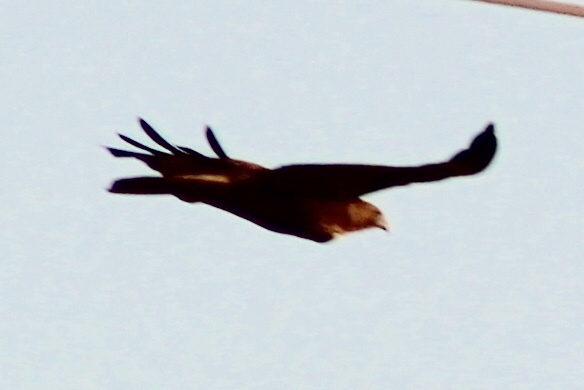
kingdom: Animalia
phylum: Chordata
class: Aves
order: Accipitriformes
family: Accipitridae
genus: Buteo
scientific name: Buteo jamaicensis
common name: Red-tailed hawk
